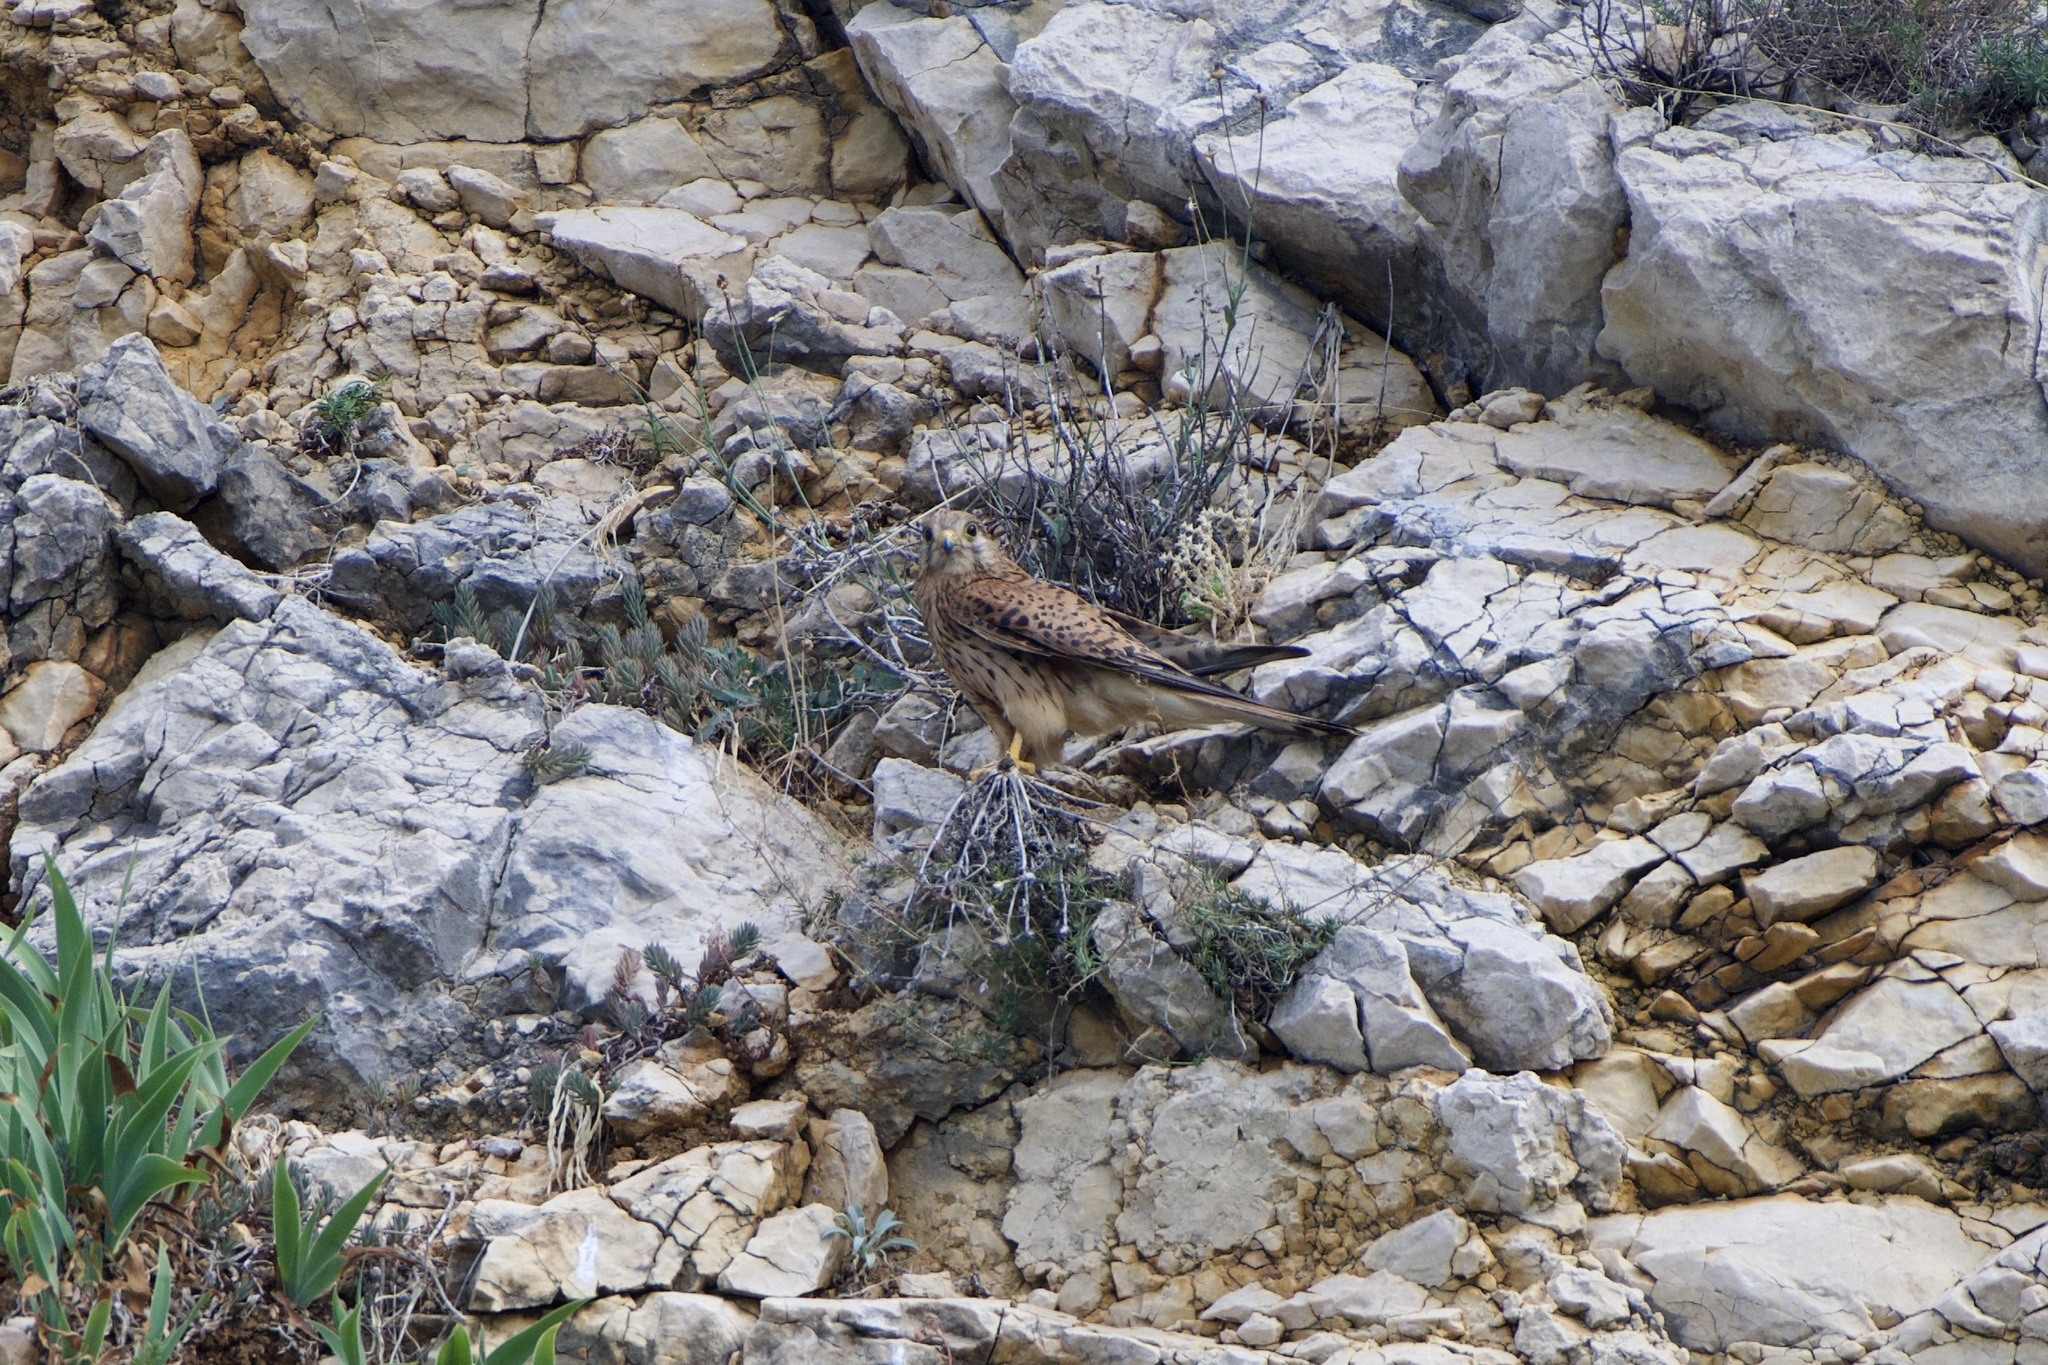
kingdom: Animalia
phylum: Chordata
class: Aves
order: Falconiformes
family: Falconidae
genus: Falco
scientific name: Falco tinnunculus
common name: Common kestrel
